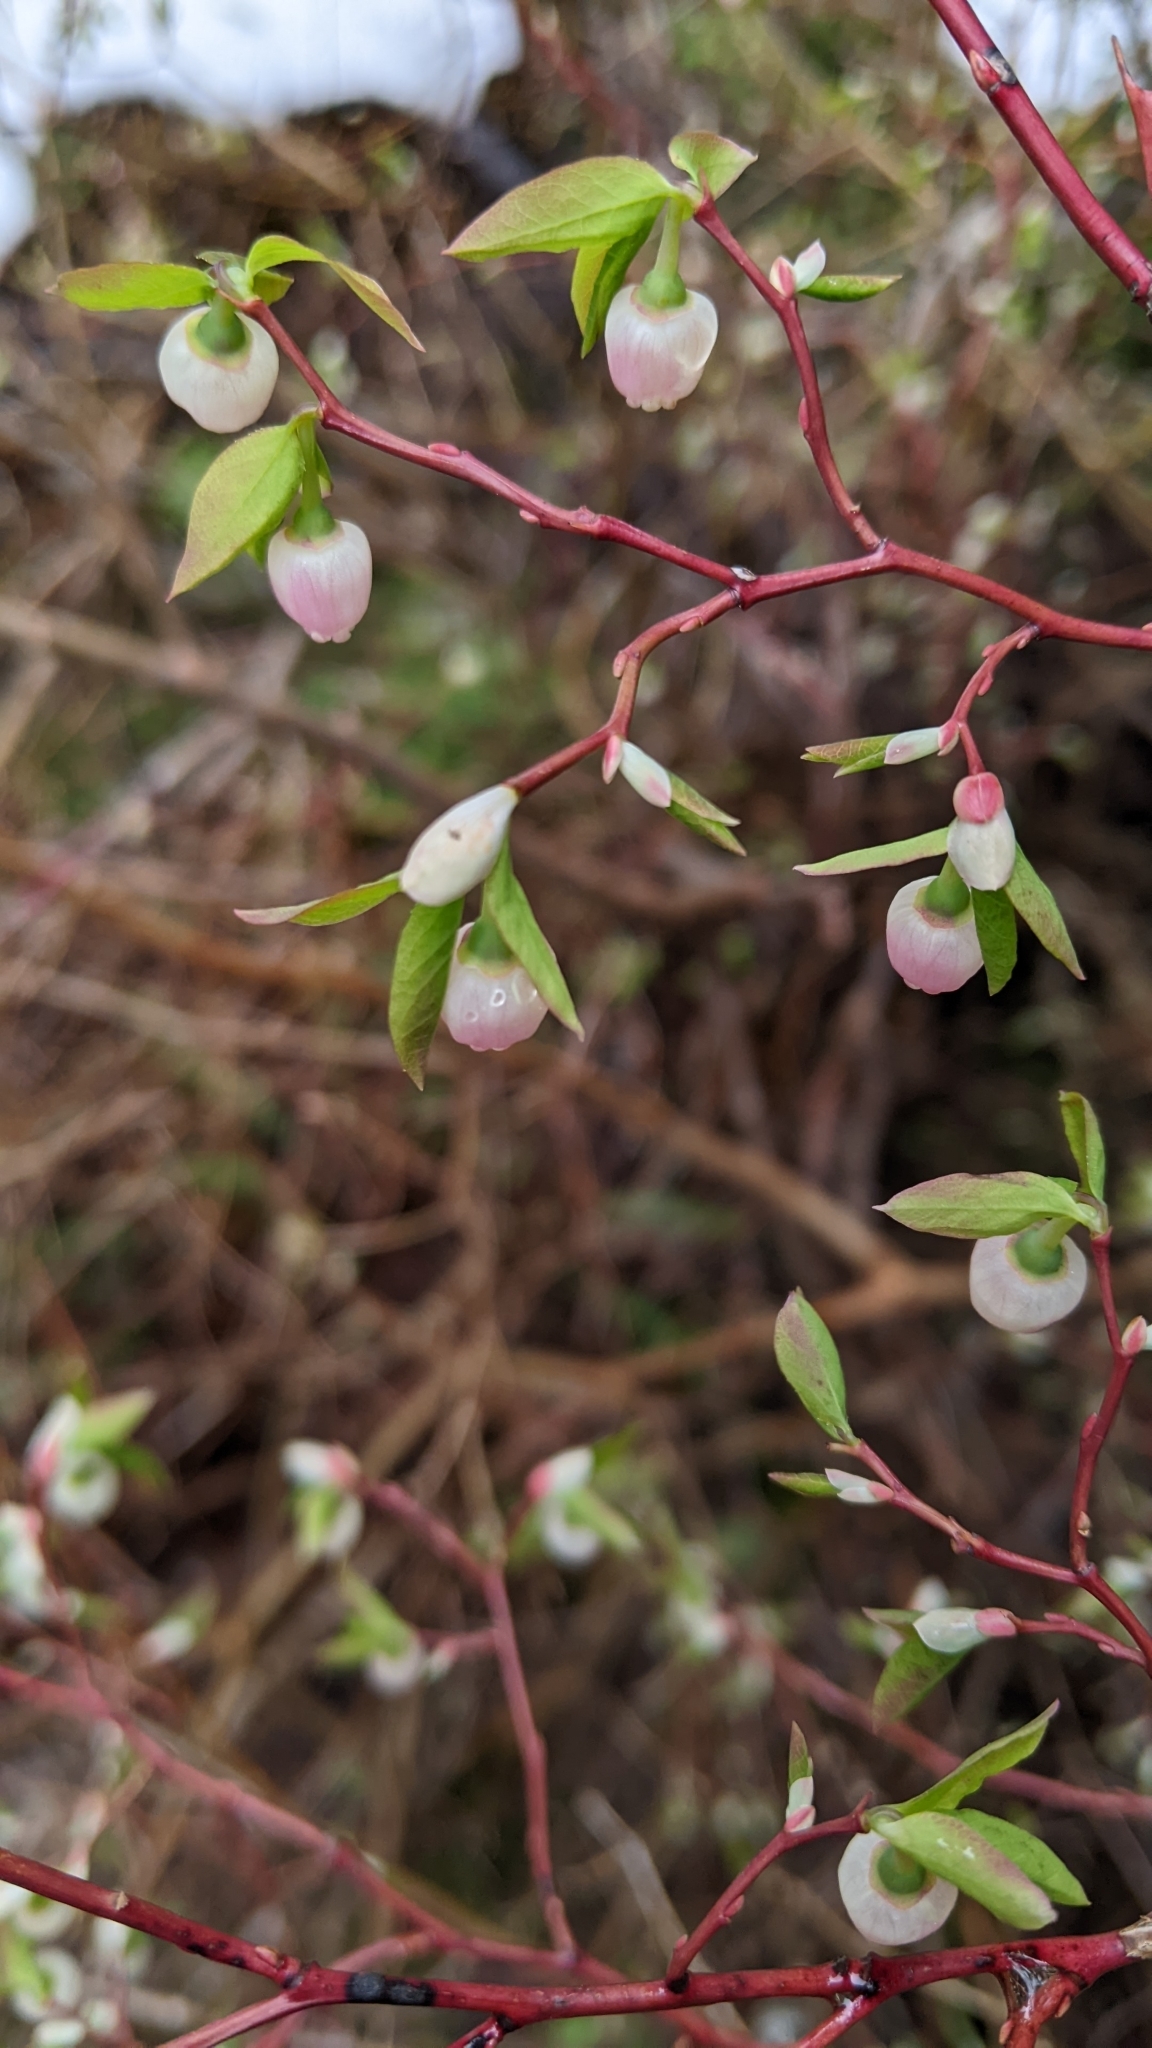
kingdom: Plantae
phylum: Tracheophyta
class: Magnoliopsida
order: Ericales
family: Ericaceae
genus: Vaccinium
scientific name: Vaccinium ovalifolium
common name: Early blueberry
